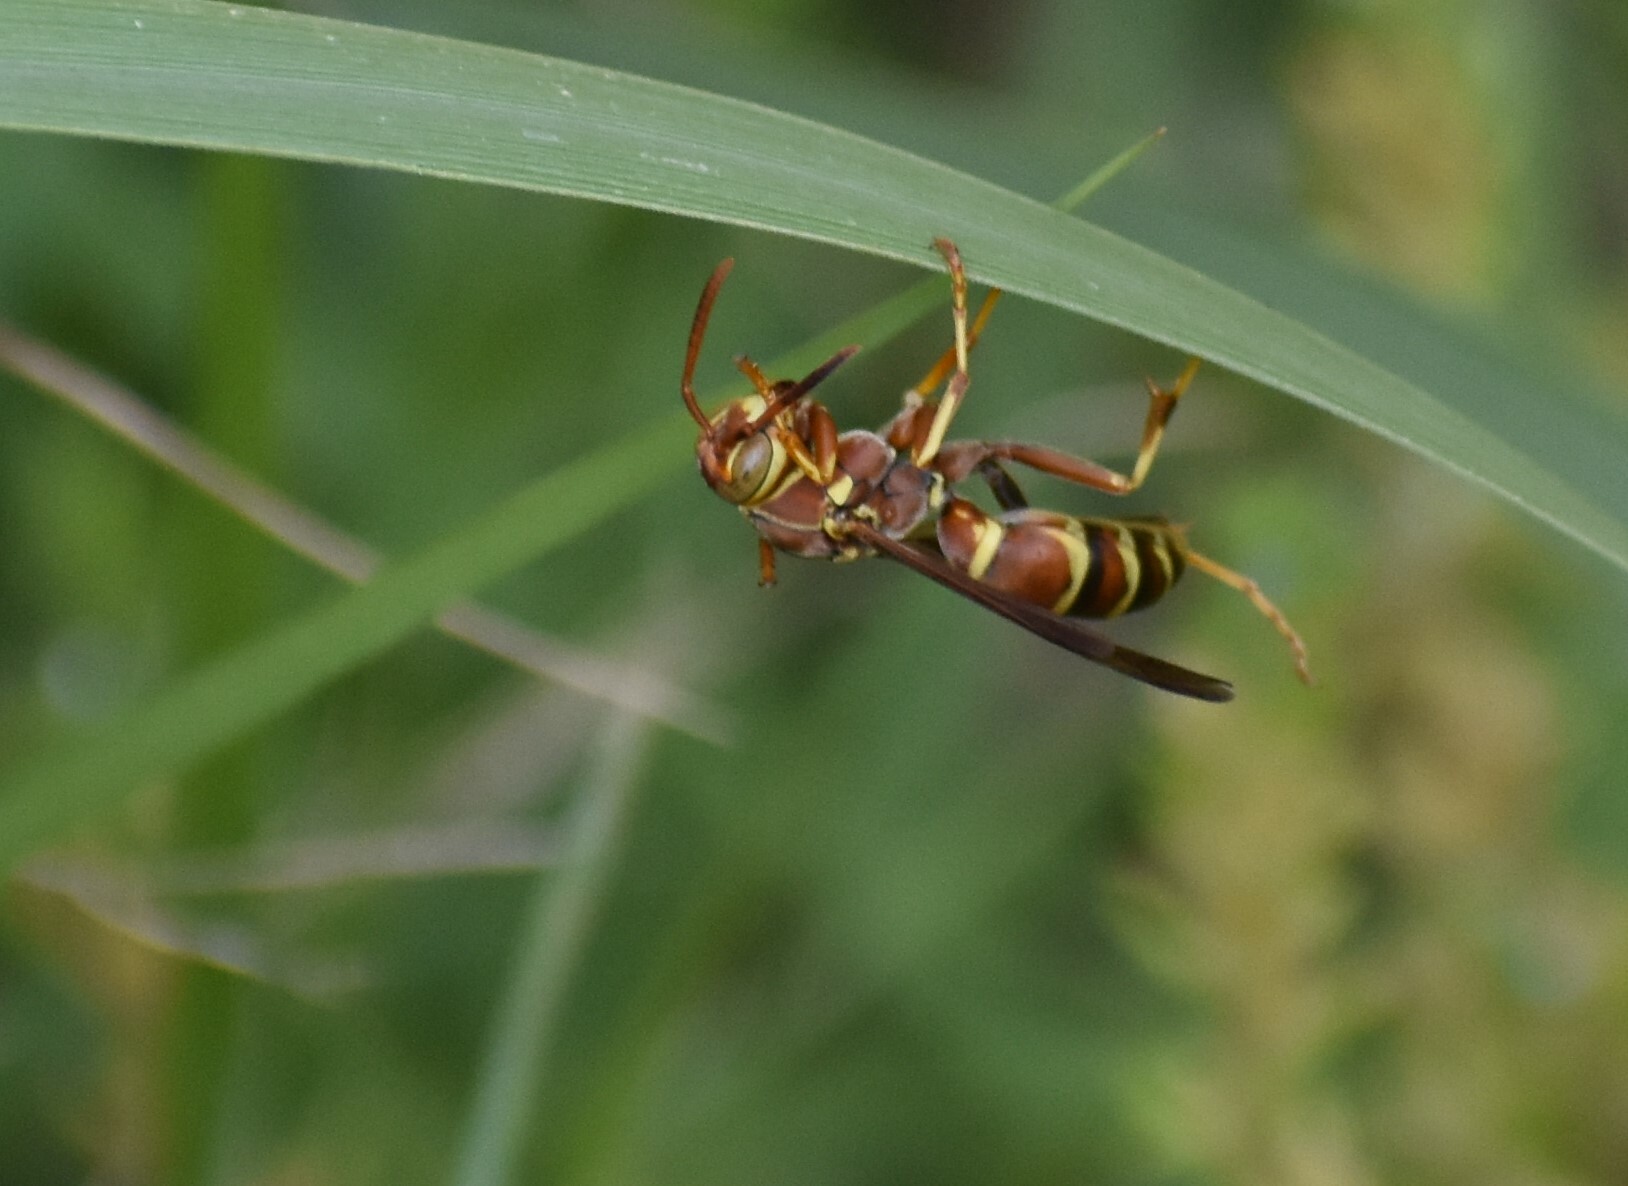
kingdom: Animalia
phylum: Arthropoda
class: Insecta
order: Hymenoptera
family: Eumenidae
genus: Polistes
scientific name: Polistes dorsalis
